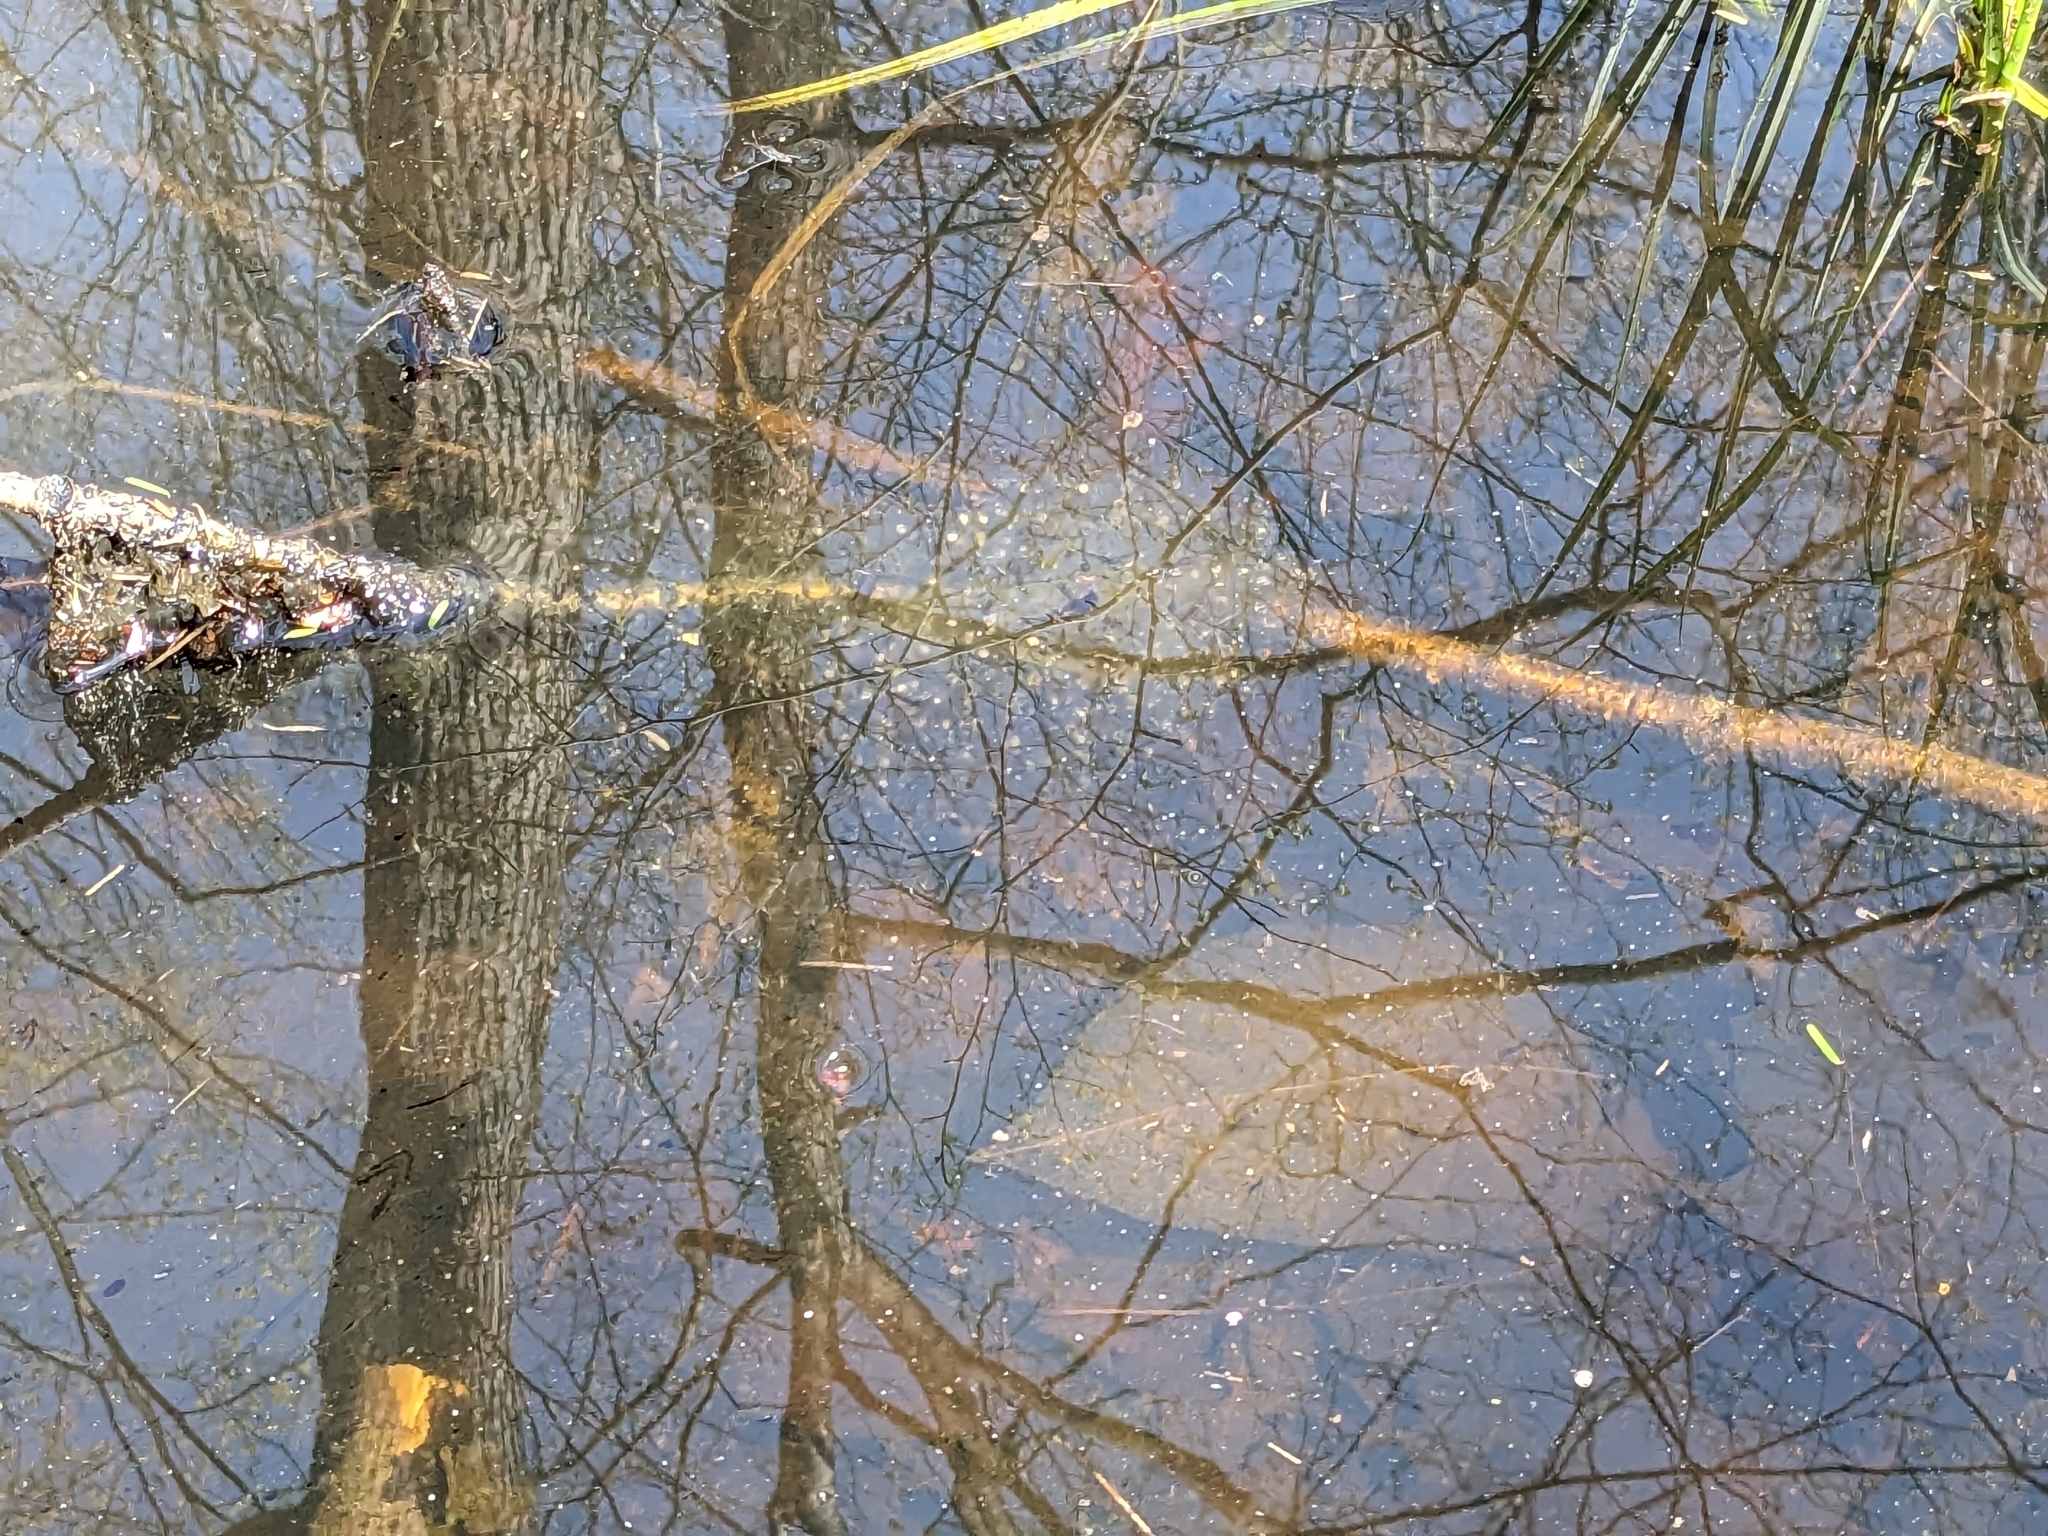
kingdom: Animalia
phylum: Chordata
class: Amphibia
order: Anura
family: Ranidae
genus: Lithobates
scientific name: Lithobates sylvaticus
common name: Wood frog
